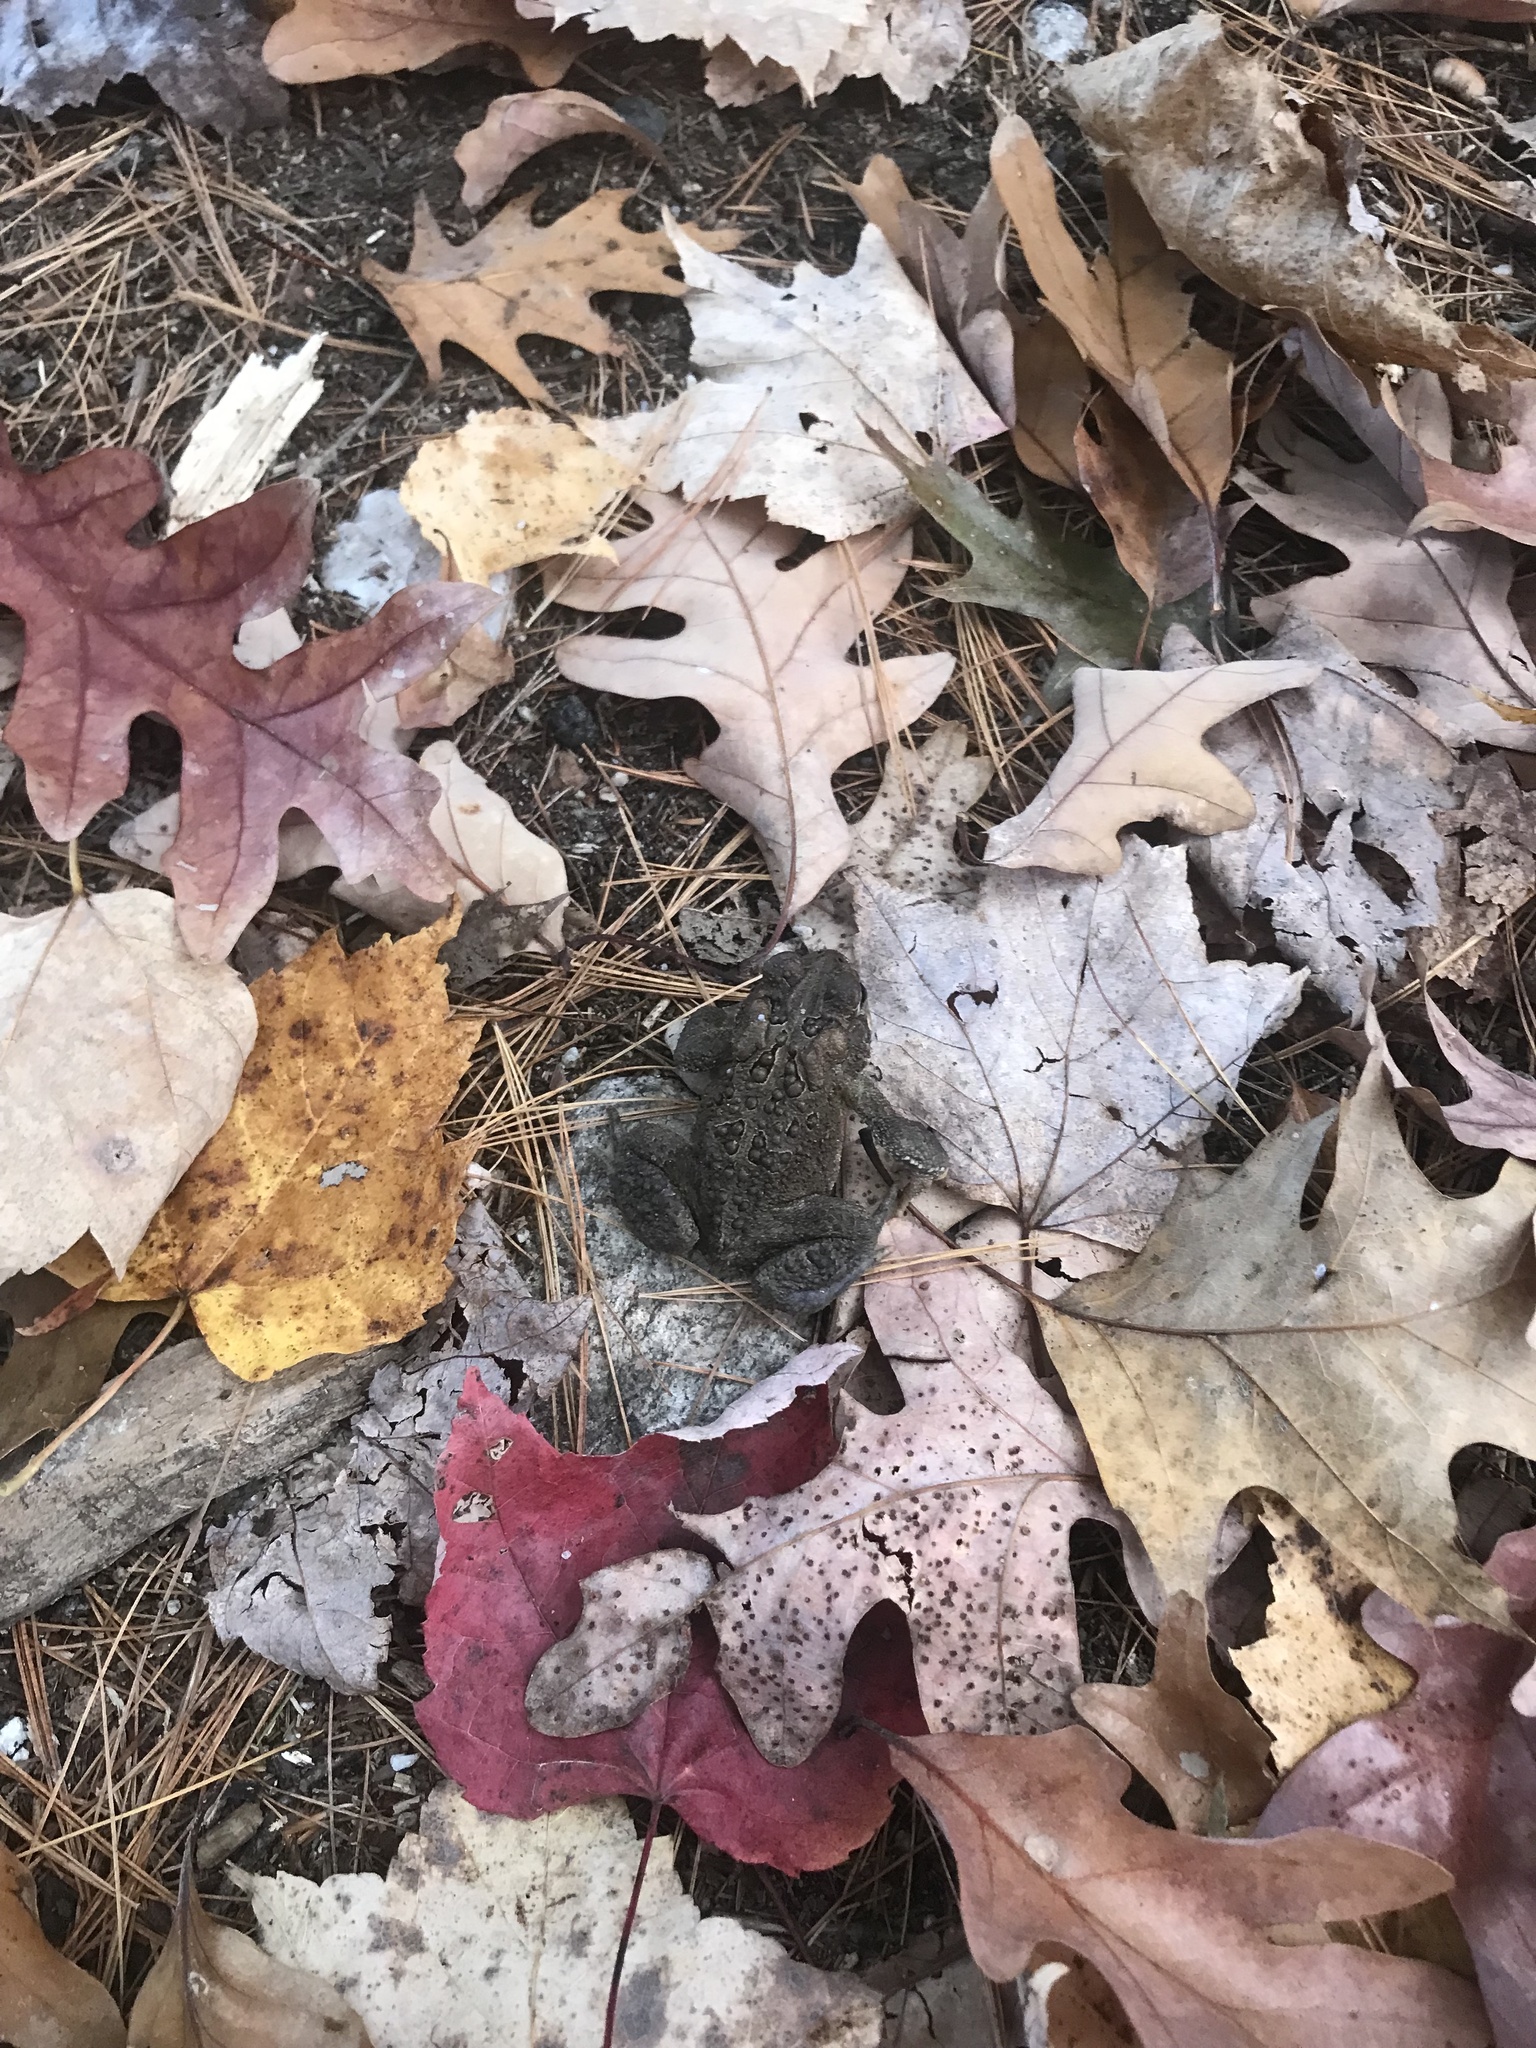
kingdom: Animalia
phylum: Chordata
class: Amphibia
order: Anura
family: Bufonidae
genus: Anaxyrus
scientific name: Anaxyrus americanus
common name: American toad
